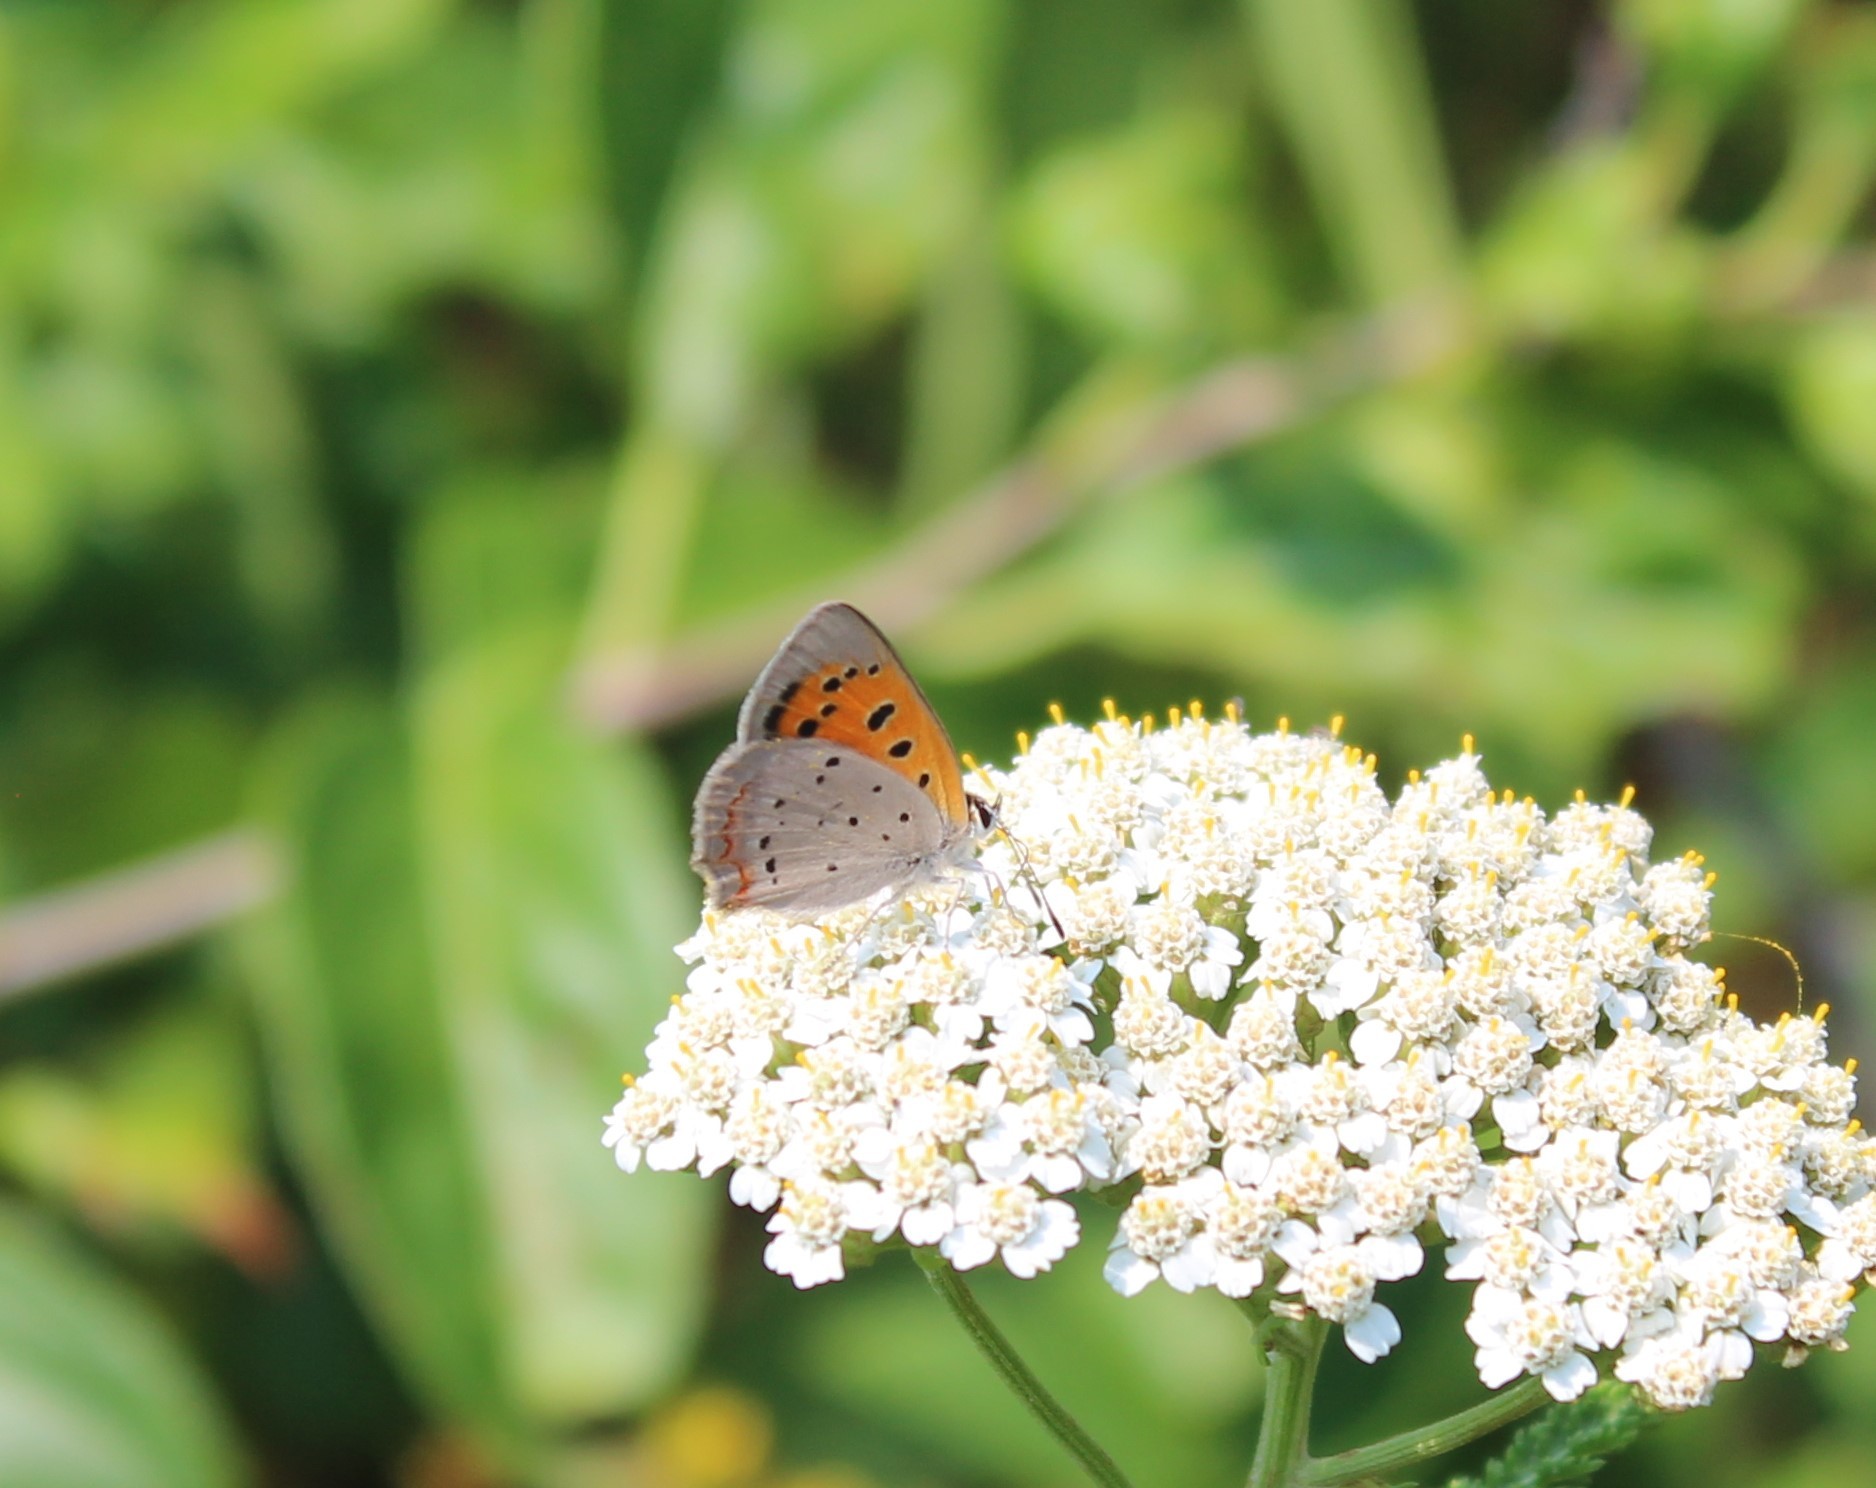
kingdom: Animalia
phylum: Arthropoda
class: Insecta
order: Lepidoptera
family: Lycaenidae
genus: Lycaena
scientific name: Lycaena hypophlaeas
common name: American copper
